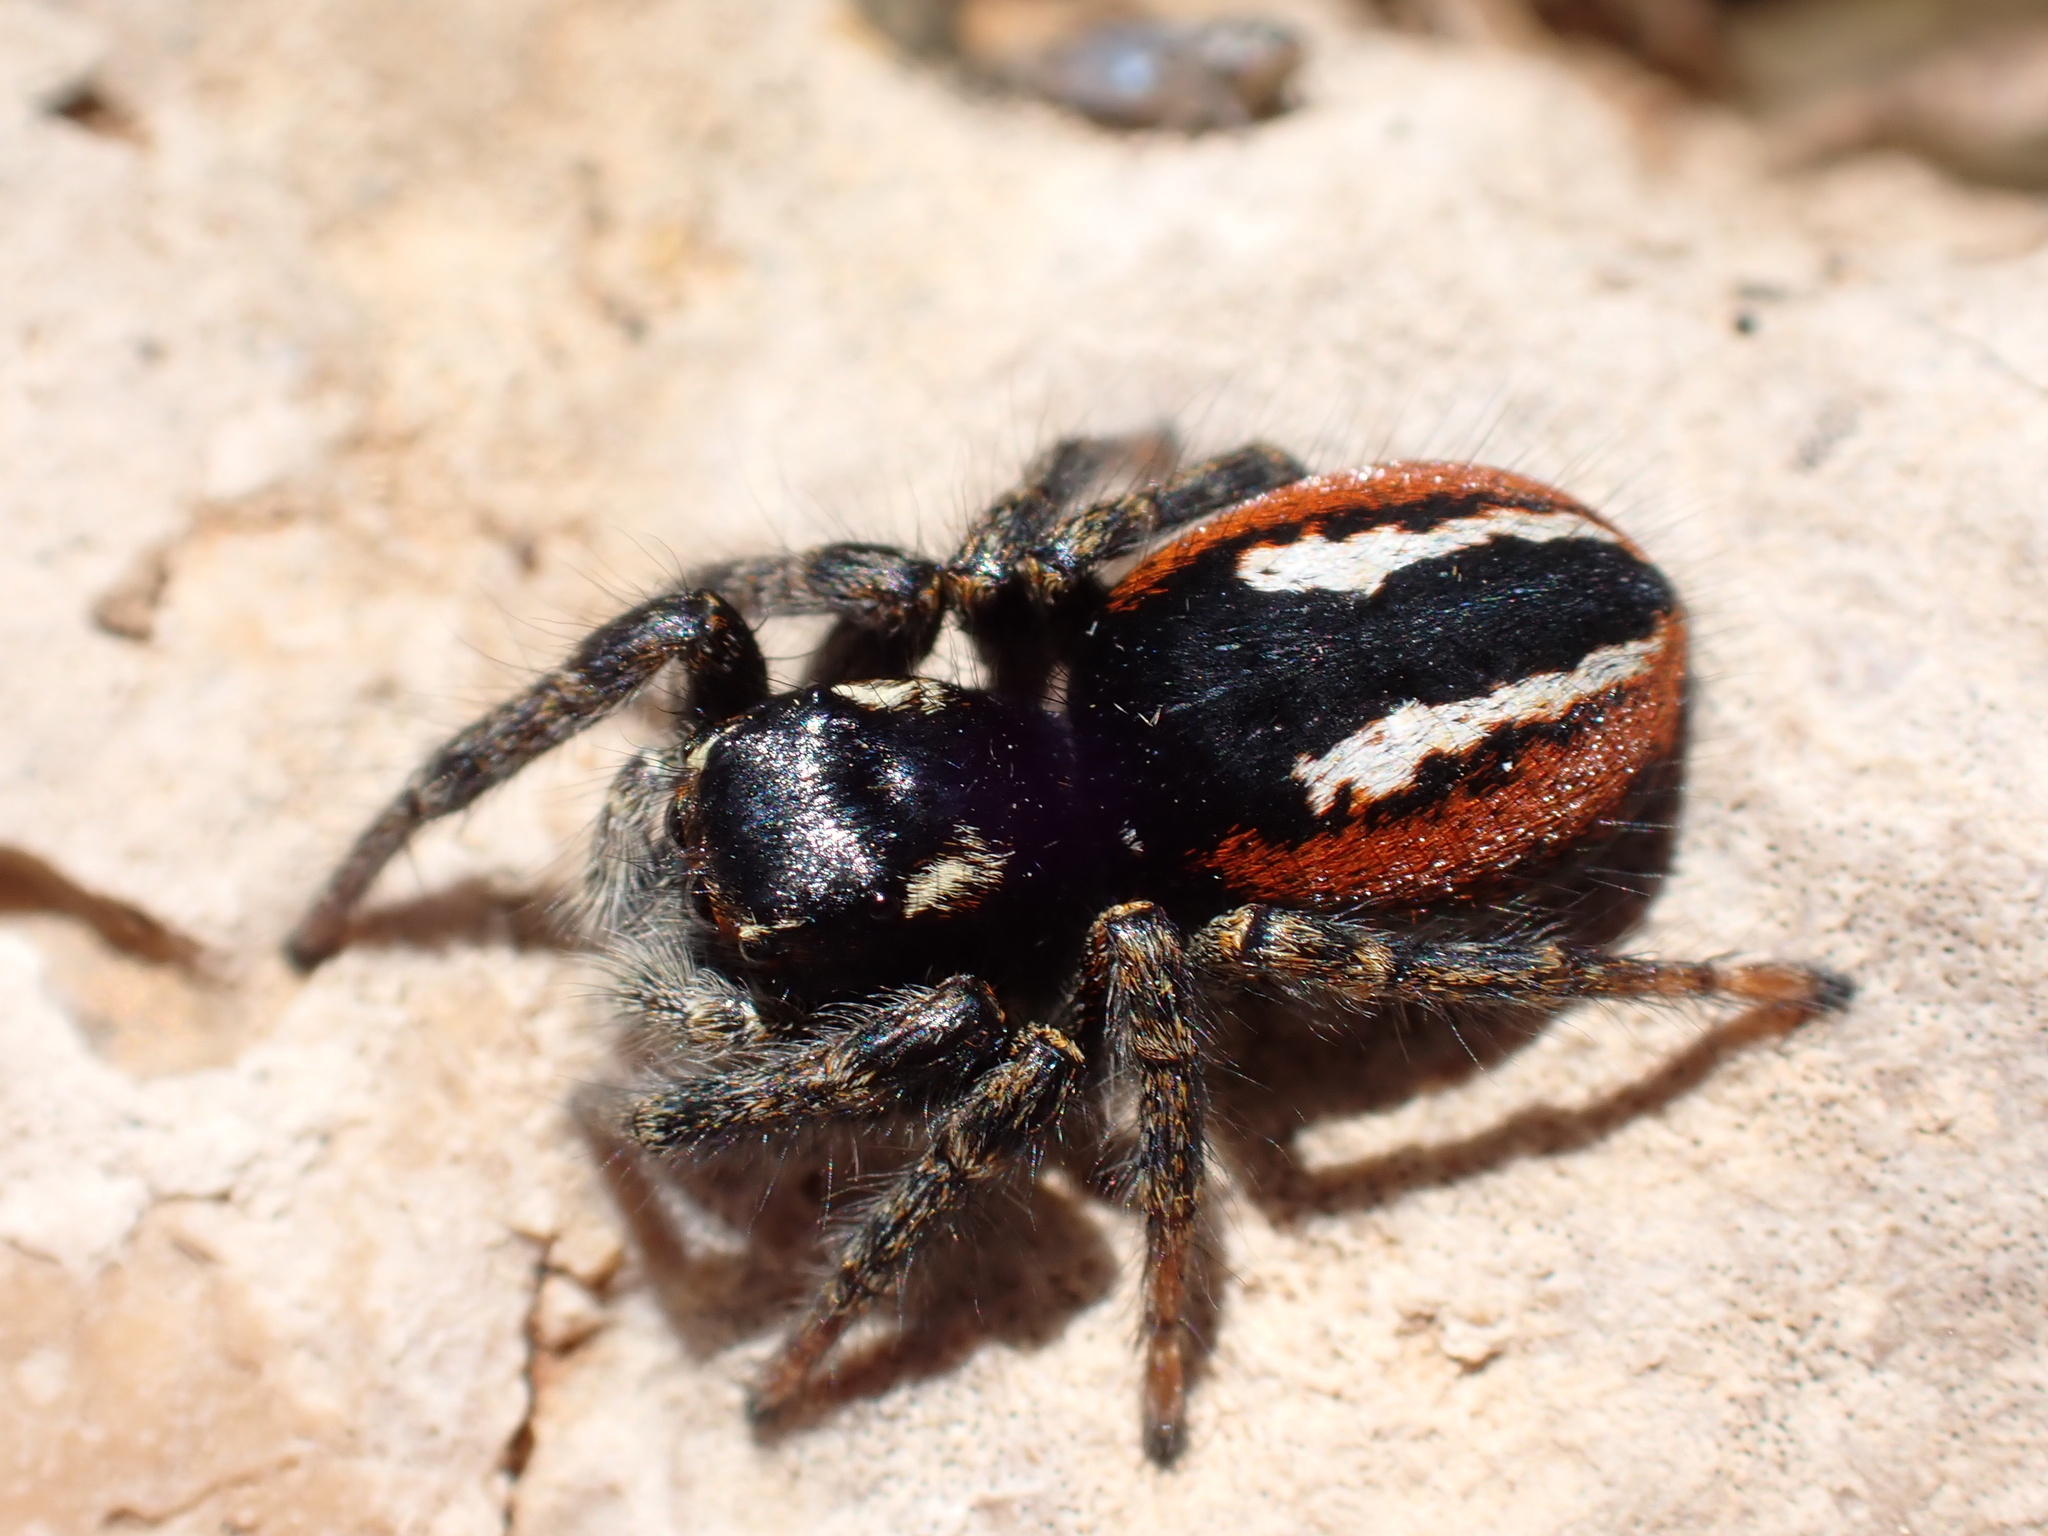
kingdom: Animalia
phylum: Arthropoda
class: Arachnida
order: Araneae
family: Salticidae
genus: Philaeus
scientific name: Philaeus chrysops
